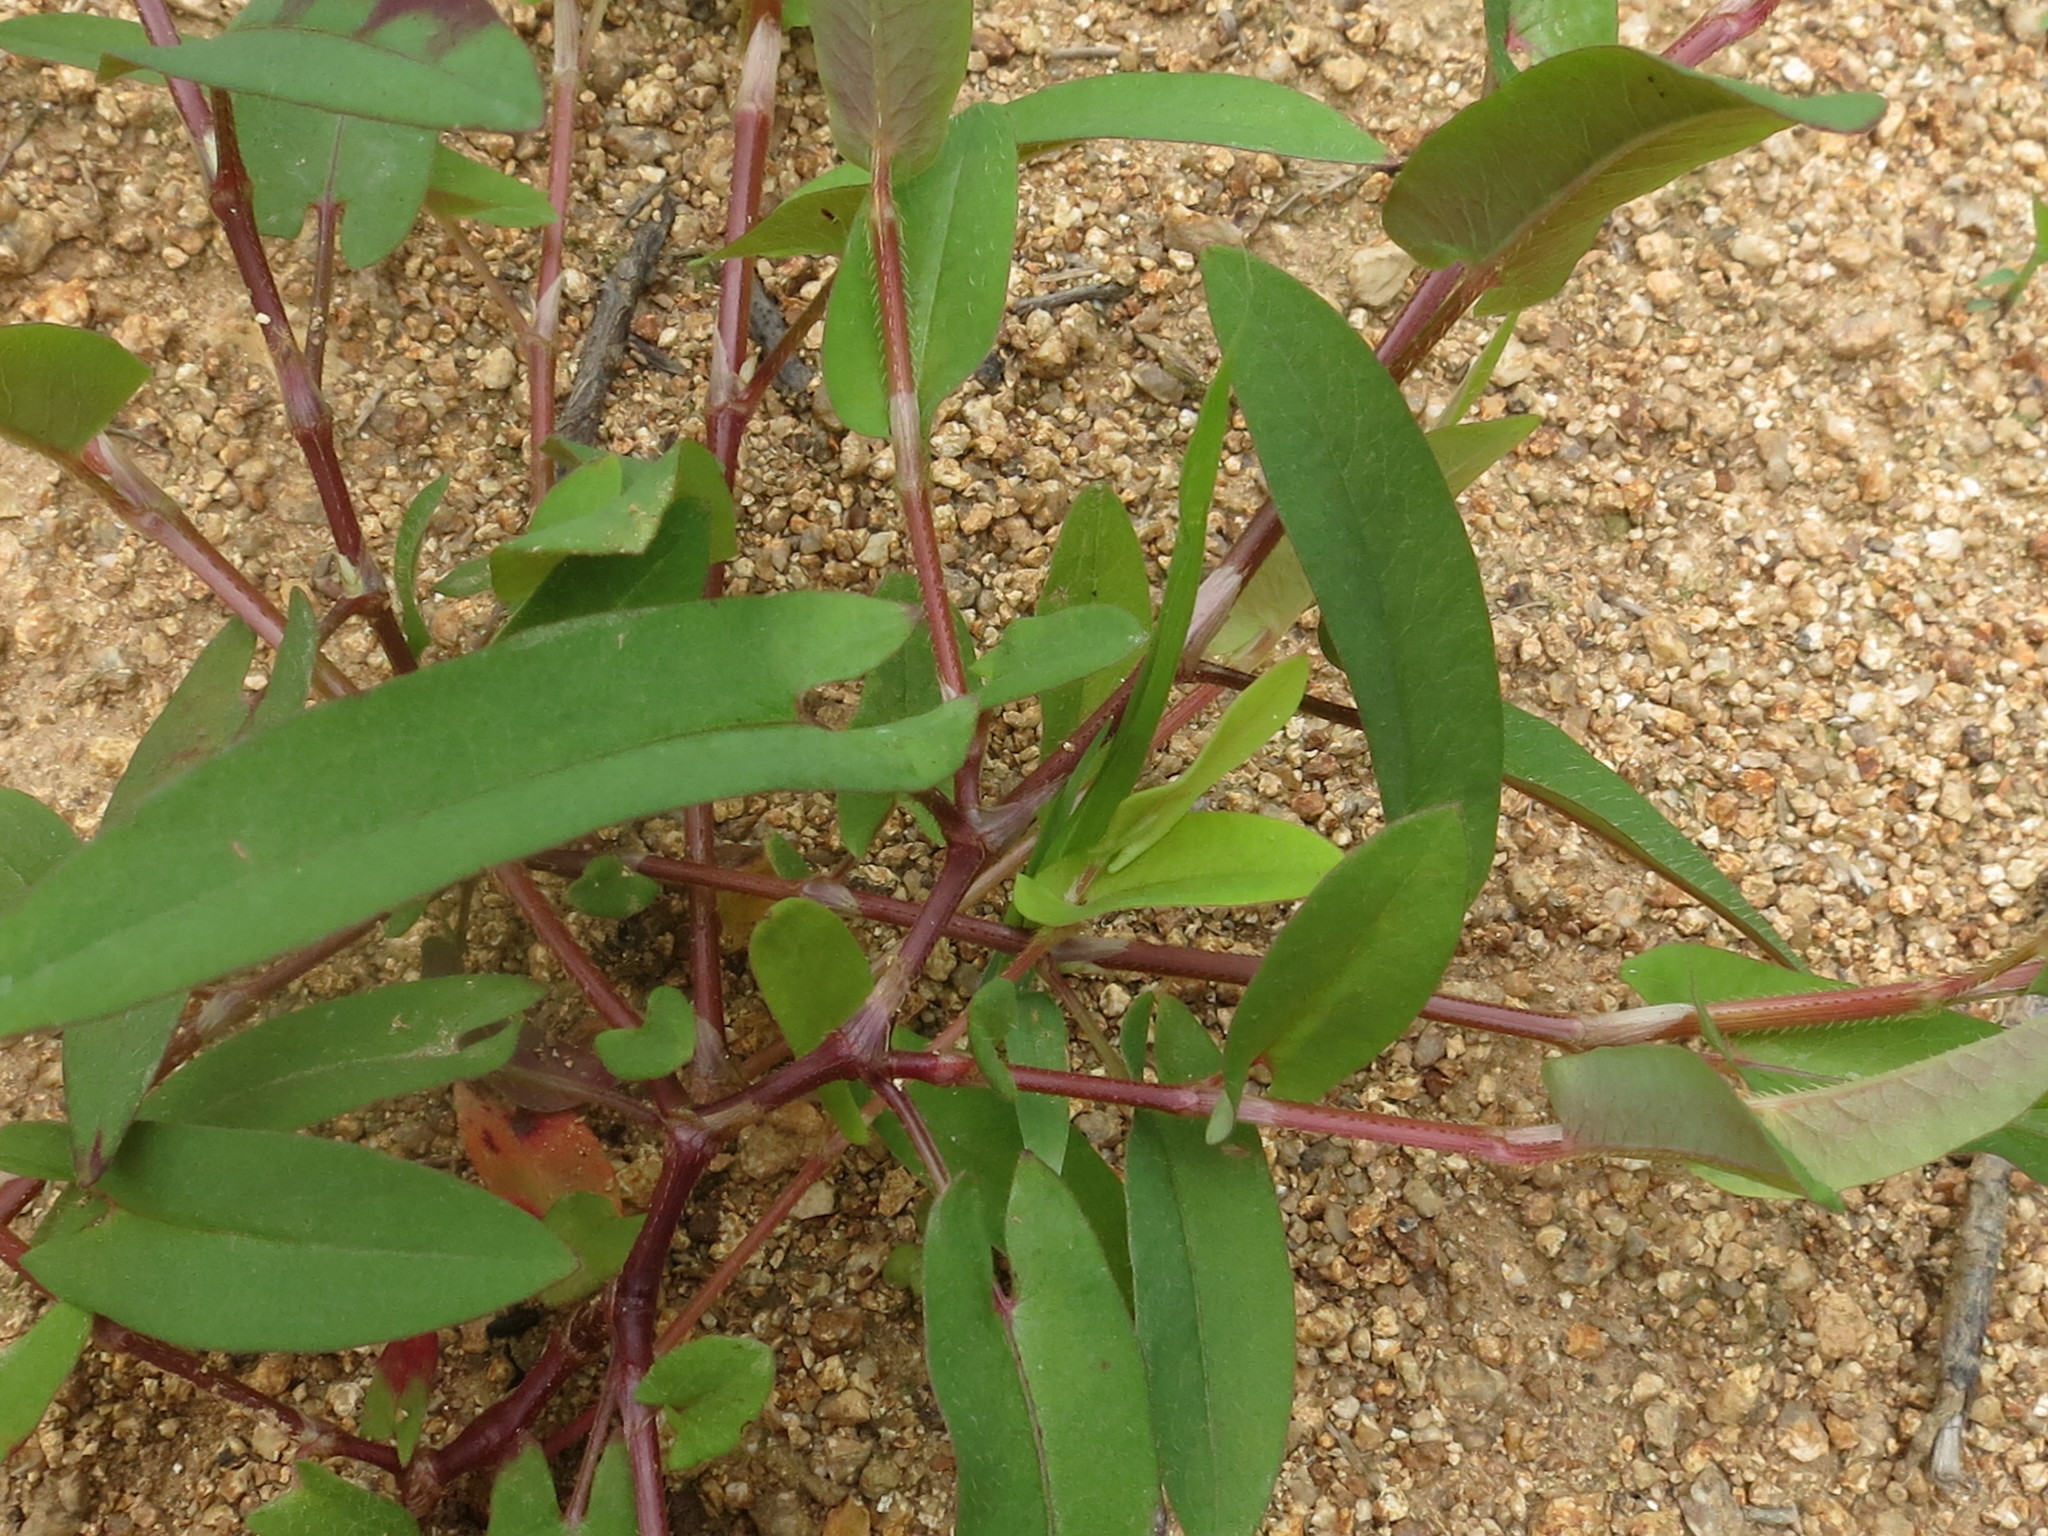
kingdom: Plantae
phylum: Tracheophyta
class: Magnoliopsida
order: Caryophyllales
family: Polygonaceae
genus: Persicaria
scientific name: Persicaria sagittata
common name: American tearthumb
